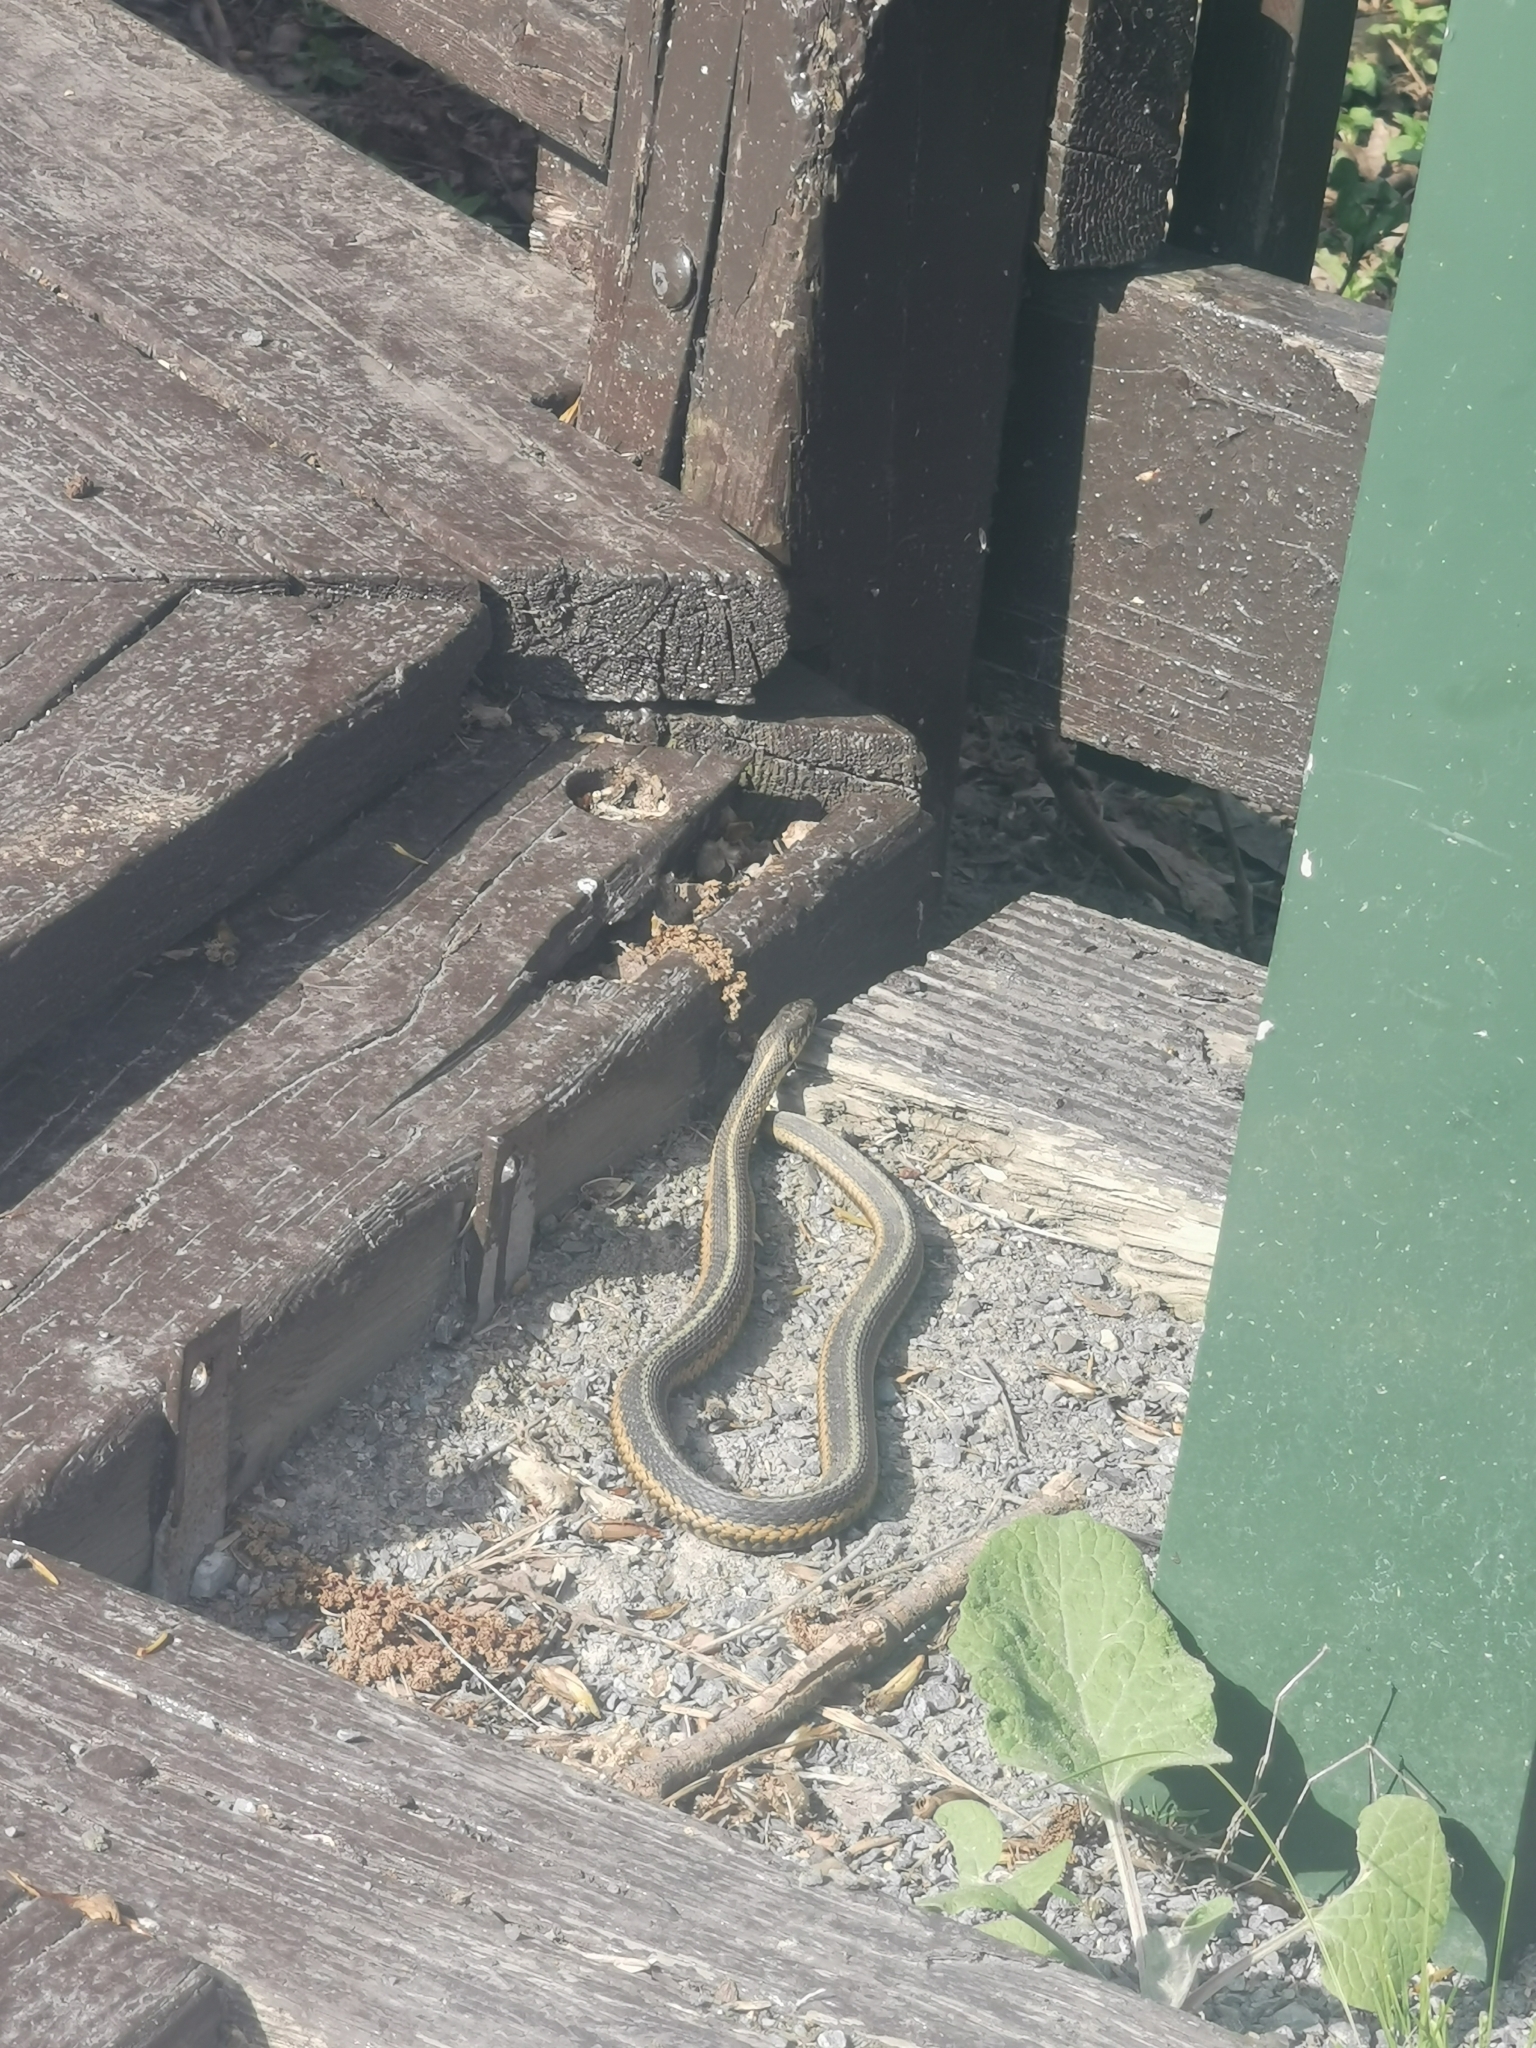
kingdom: Animalia
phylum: Chordata
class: Squamata
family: Colubridae
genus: Thamnophis
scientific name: Thamnophis sirtalis
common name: Common garter snake
